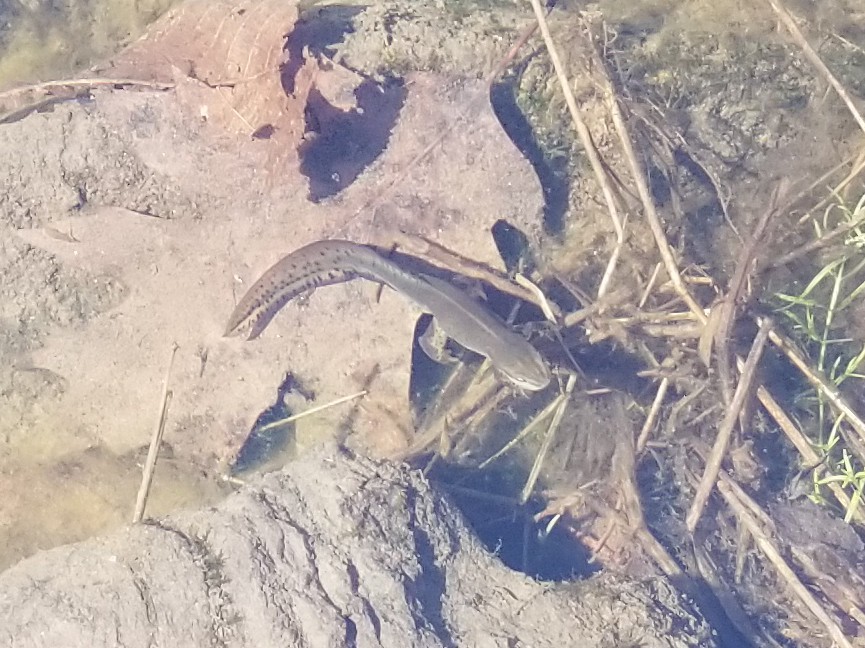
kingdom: Animalia
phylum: Chordata
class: Amphibia
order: Caudata
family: Salamandridae
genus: Notophthalmus
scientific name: Notophthalmus viridescens
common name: Eastern newt
